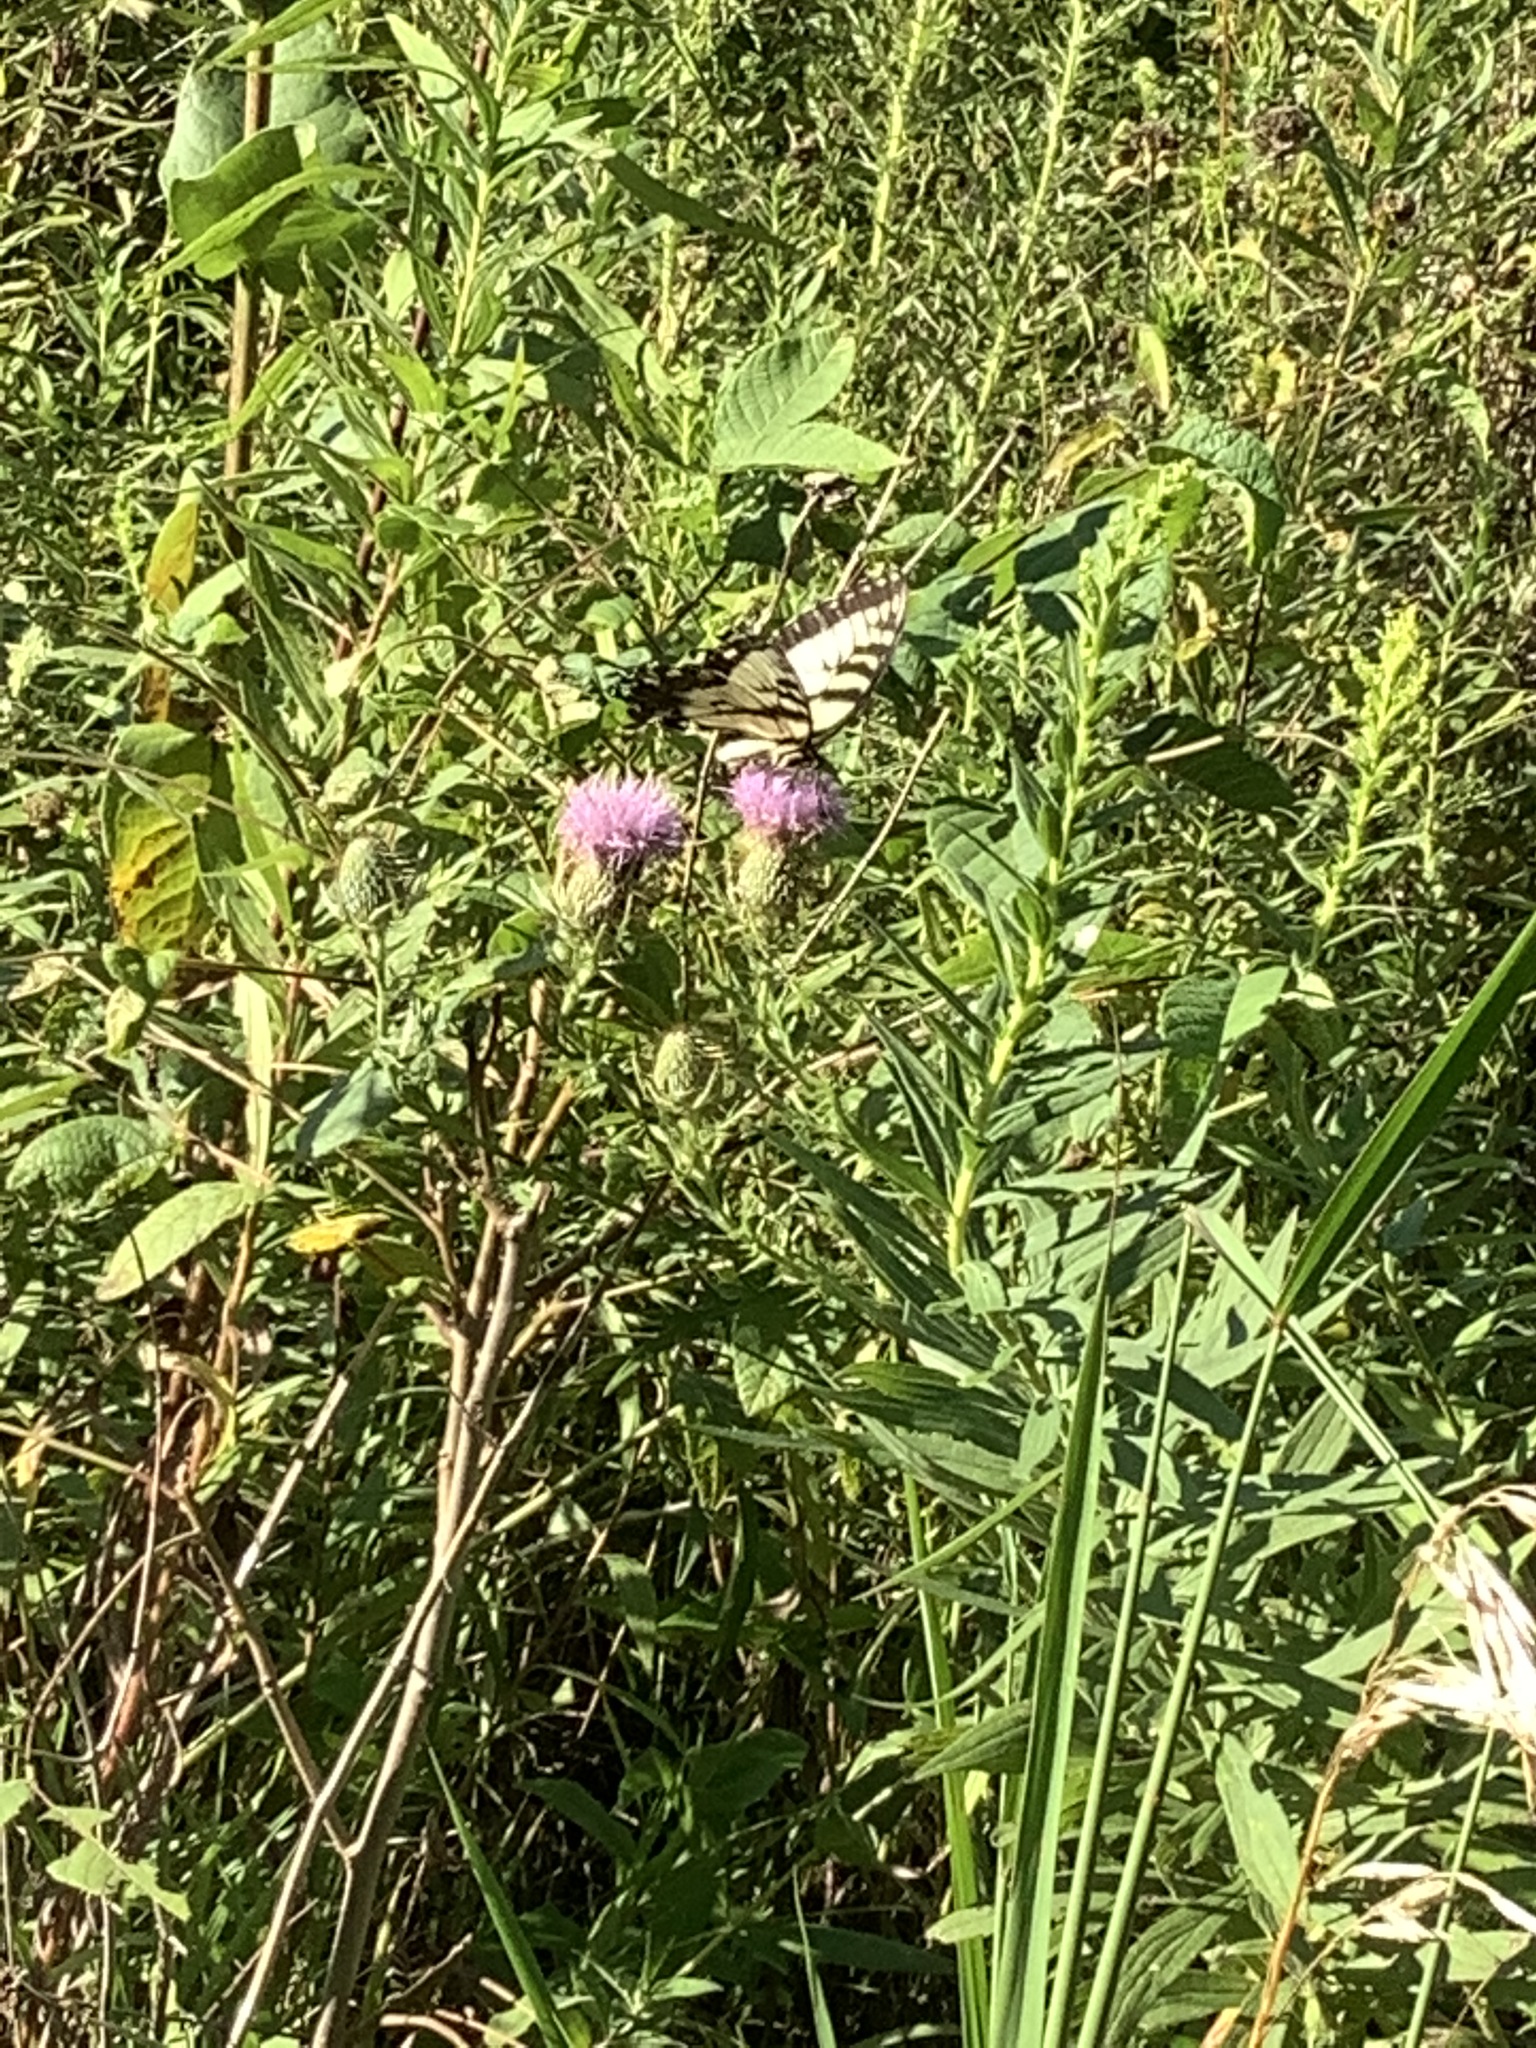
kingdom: Animalia
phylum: Arthropoda
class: Insecta
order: Lepidoptera
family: Papilionidae
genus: Papilio
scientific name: Papilio glaucus
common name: Tiger swallowtail
